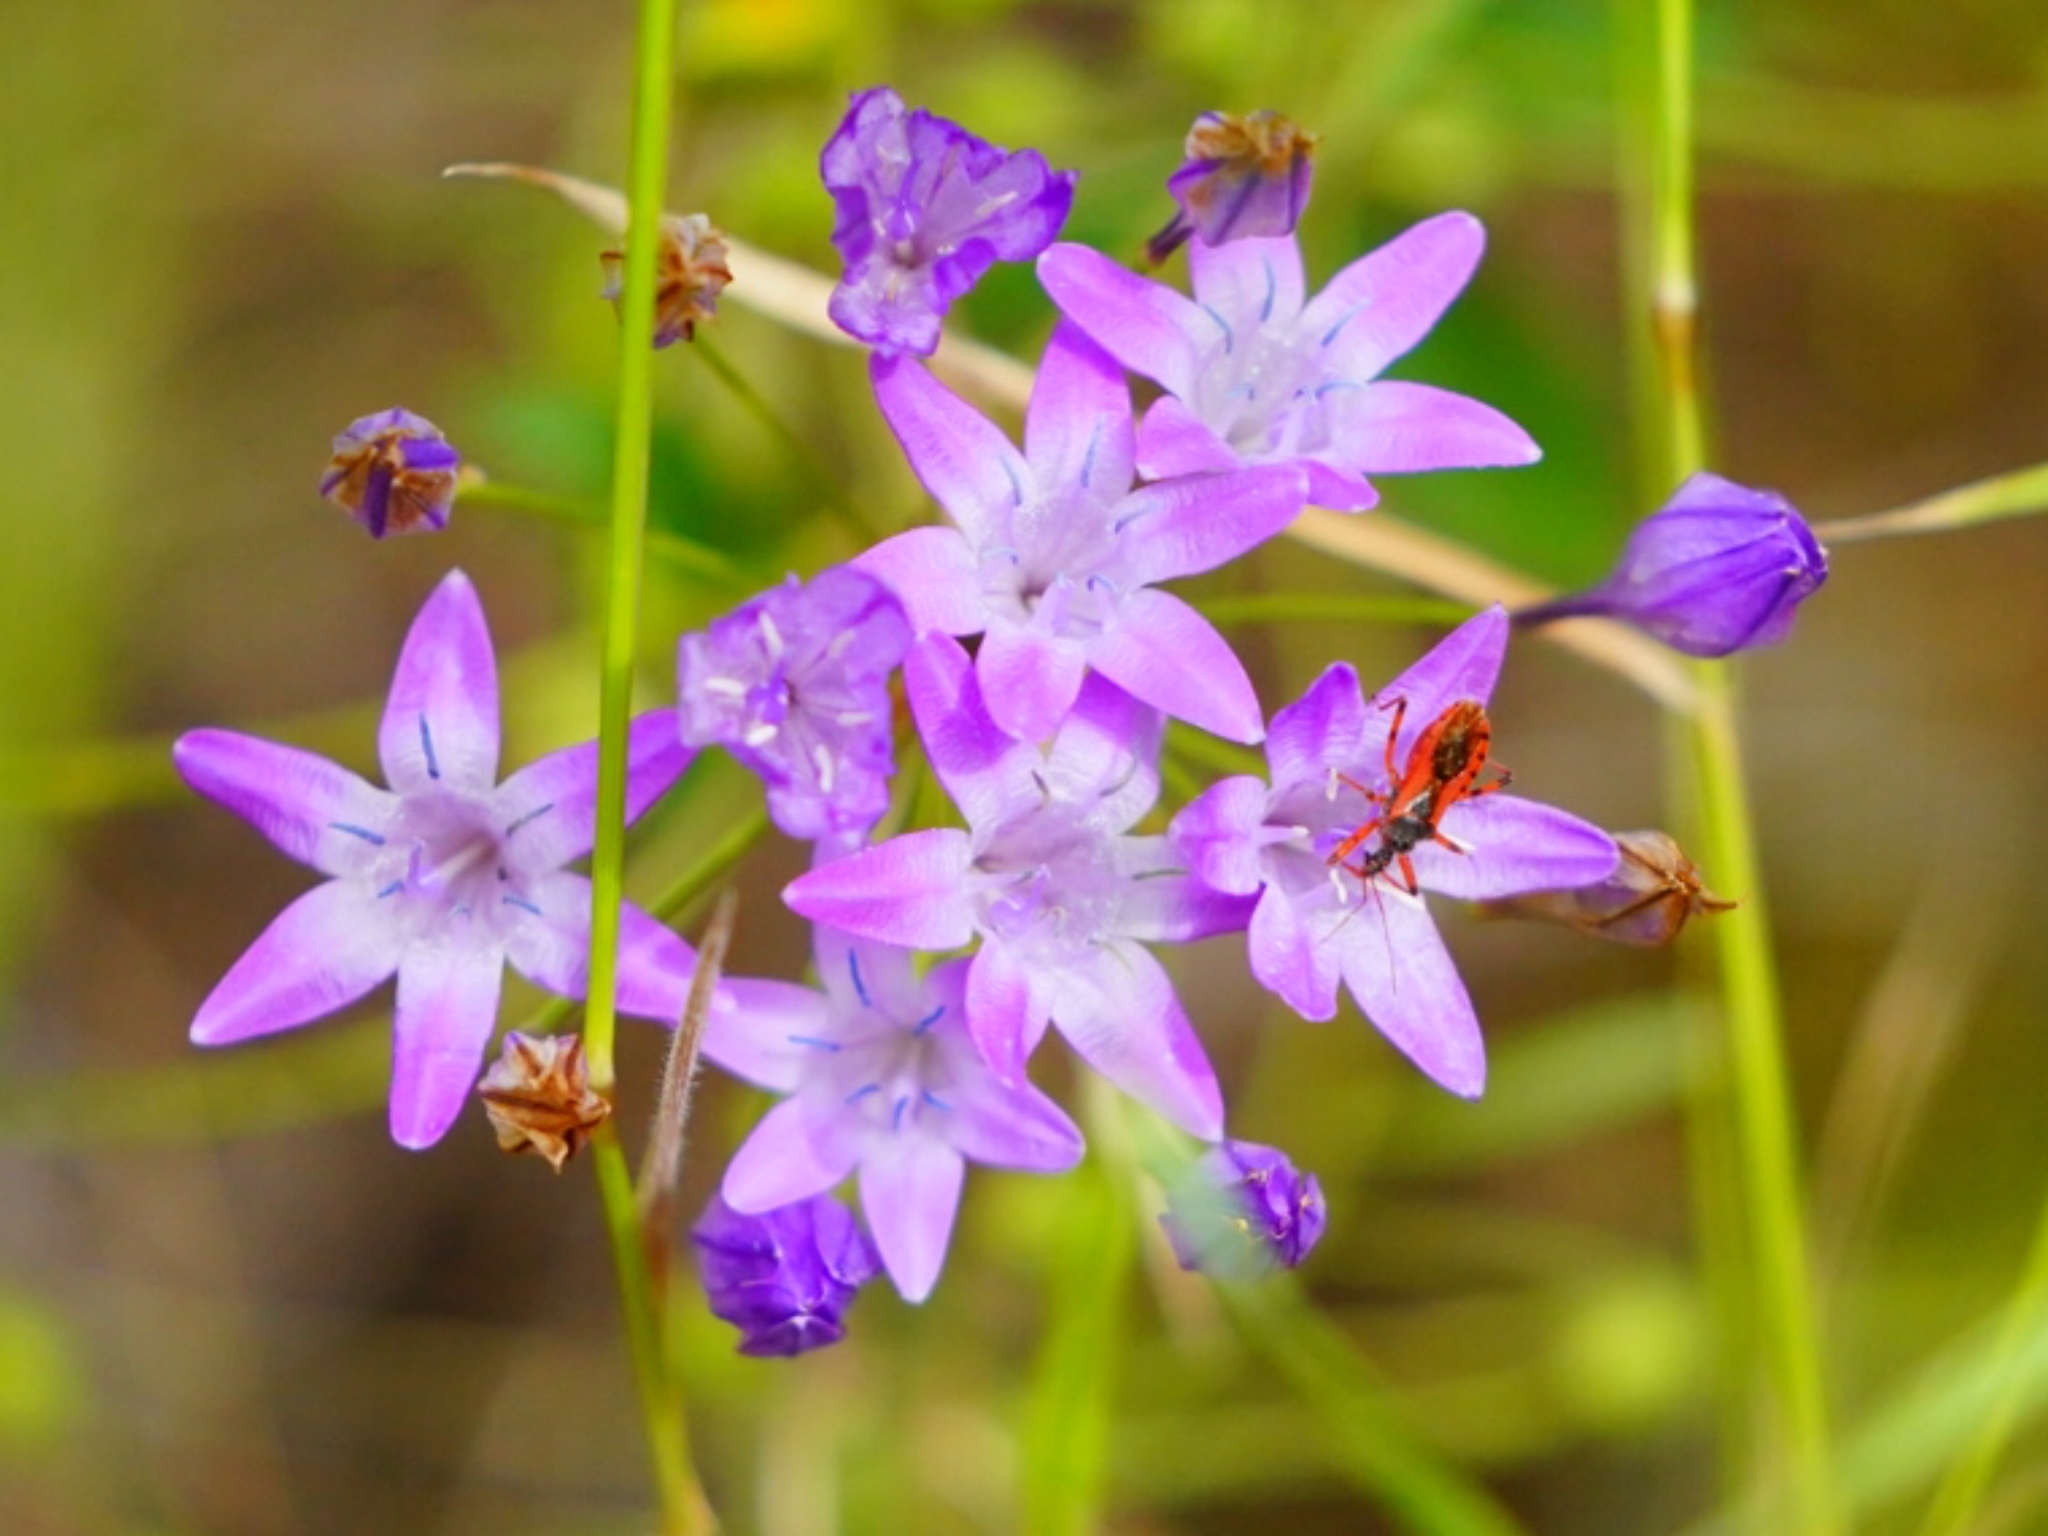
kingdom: Plantae
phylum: Tracheophyta
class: Liliopsida
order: Asparagales
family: Asparagaceae
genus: Triteleia
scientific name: Triteleia bridgesii
